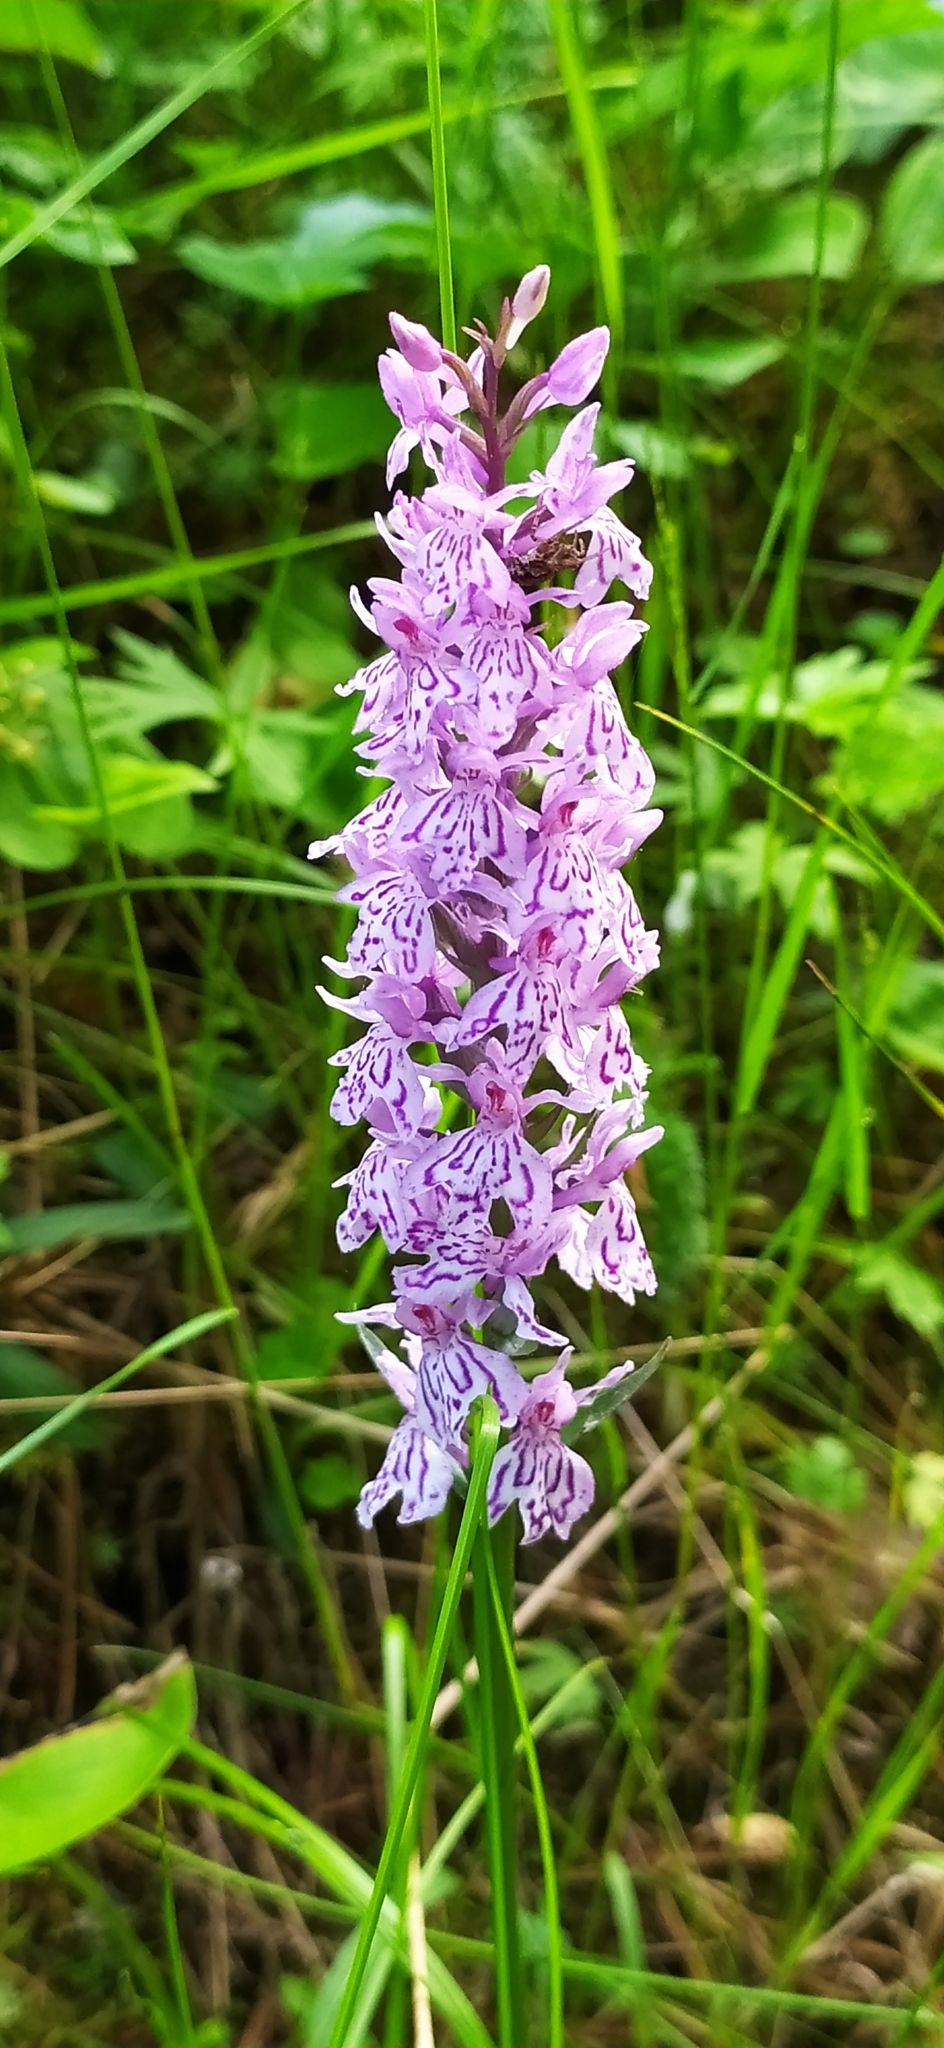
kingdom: Plantae
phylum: Tracheophyta
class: Liliopsida
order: Asparagales
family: Orchidaceae
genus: Dactylorhiza
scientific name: Dactylorhiza maculata
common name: Heath spotted-orchid
